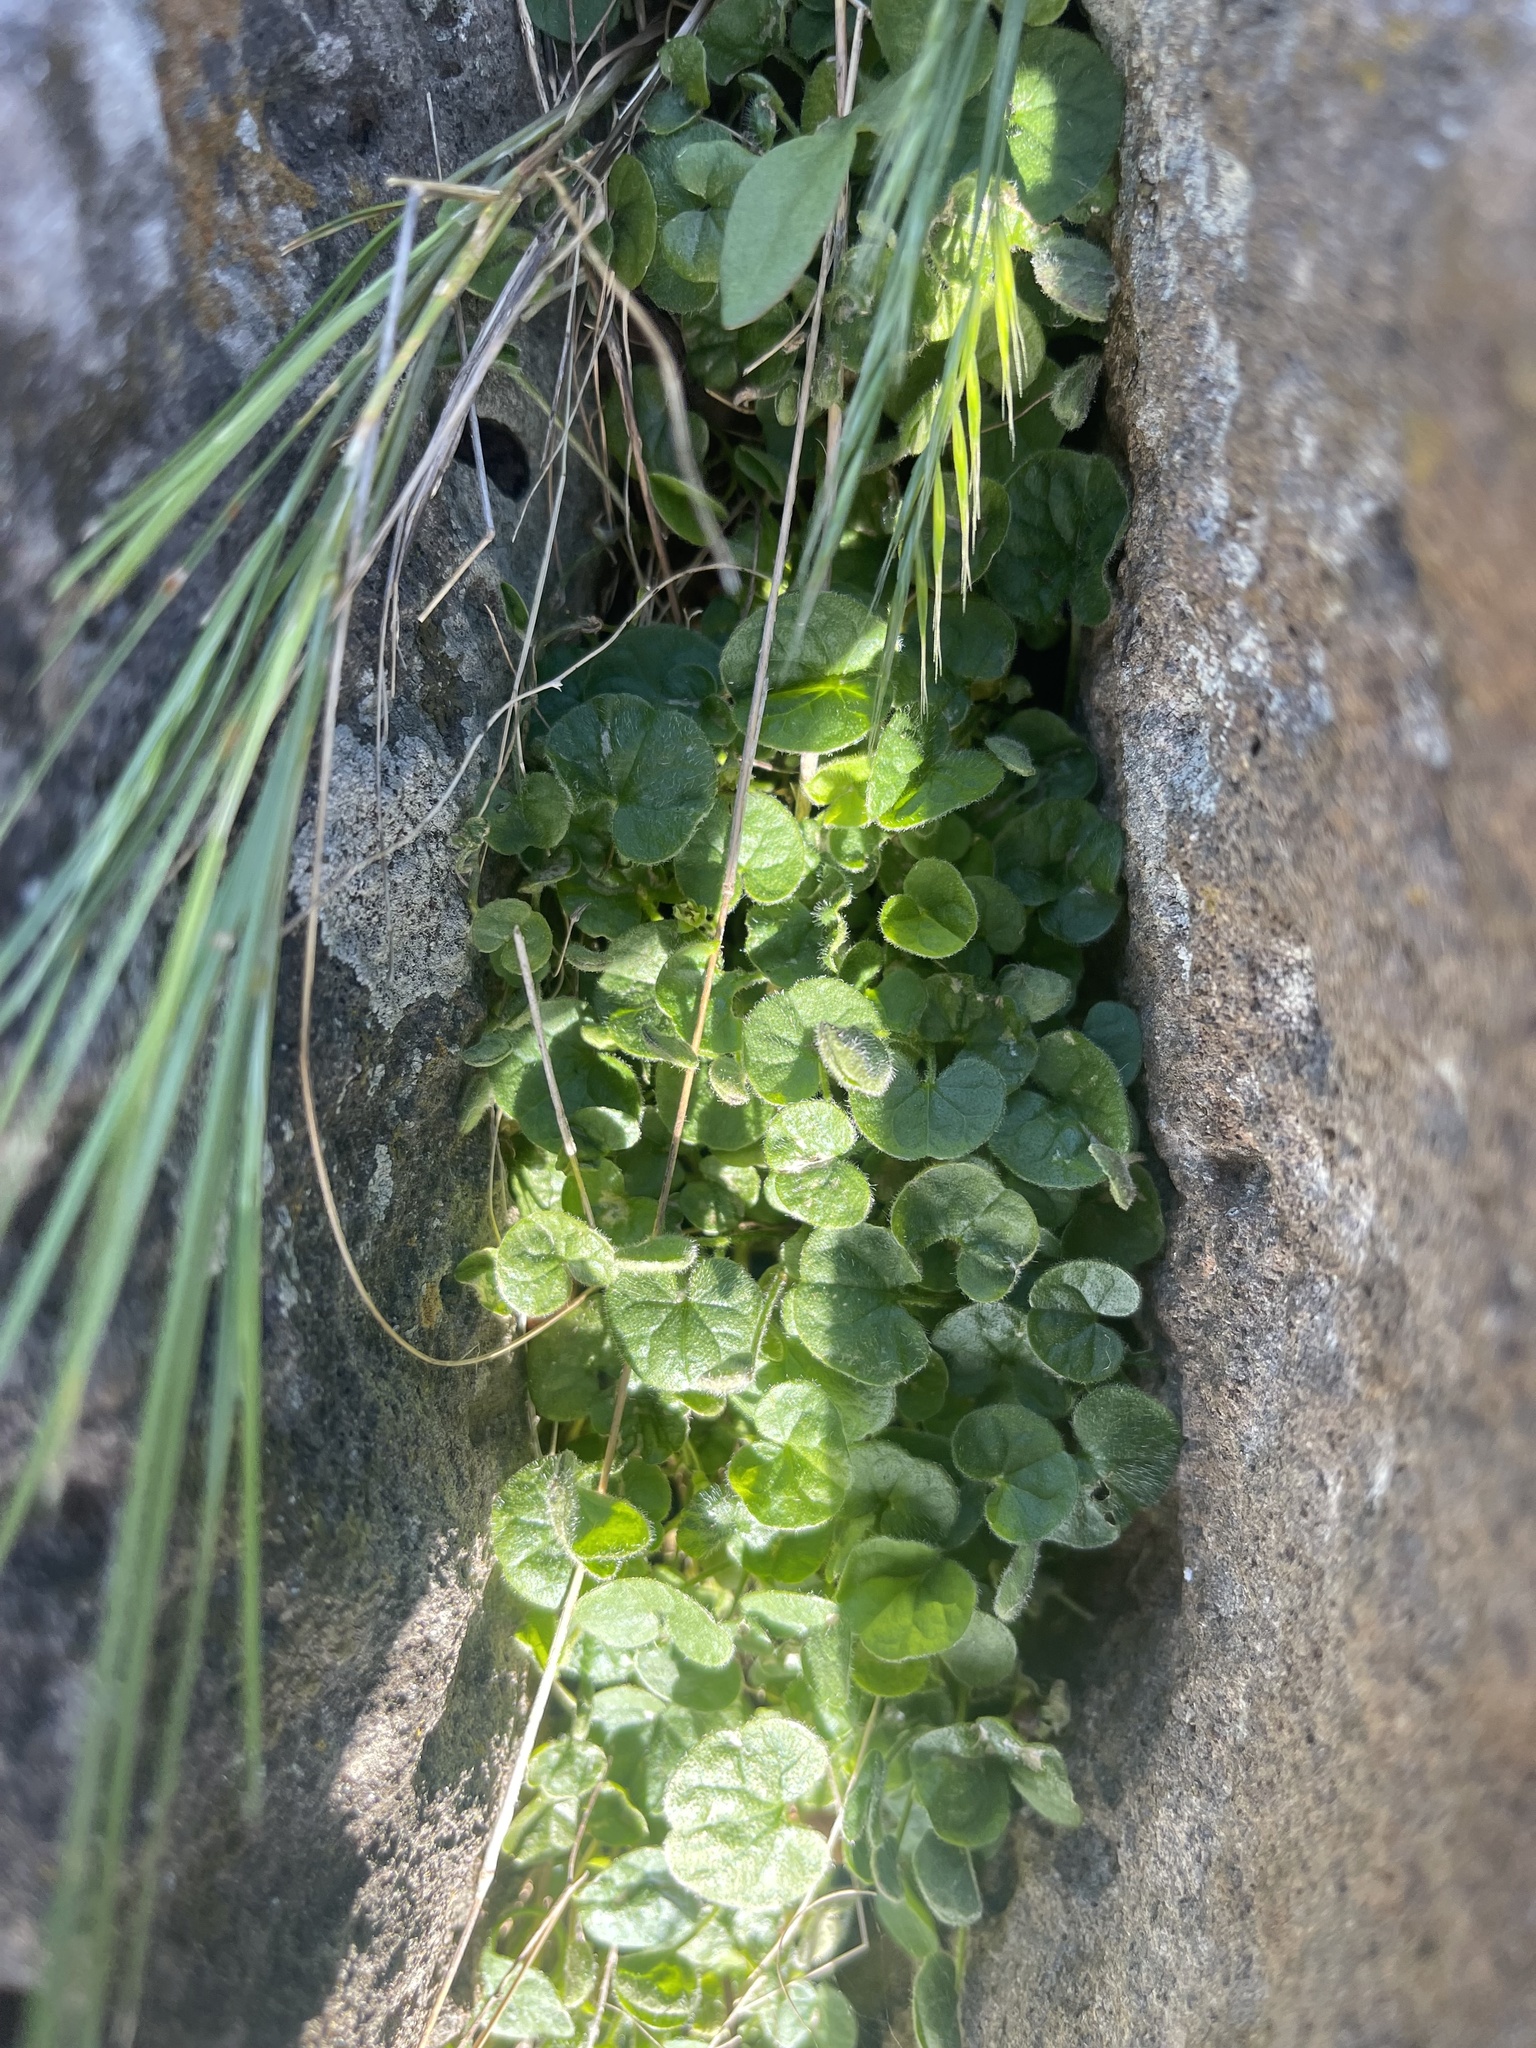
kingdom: Plantae
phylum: Tracheophyta
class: Magnoliopsida
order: Solanales
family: Convolvulaceae
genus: Dichondra
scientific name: Dichondra repens
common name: Kidneyweed
